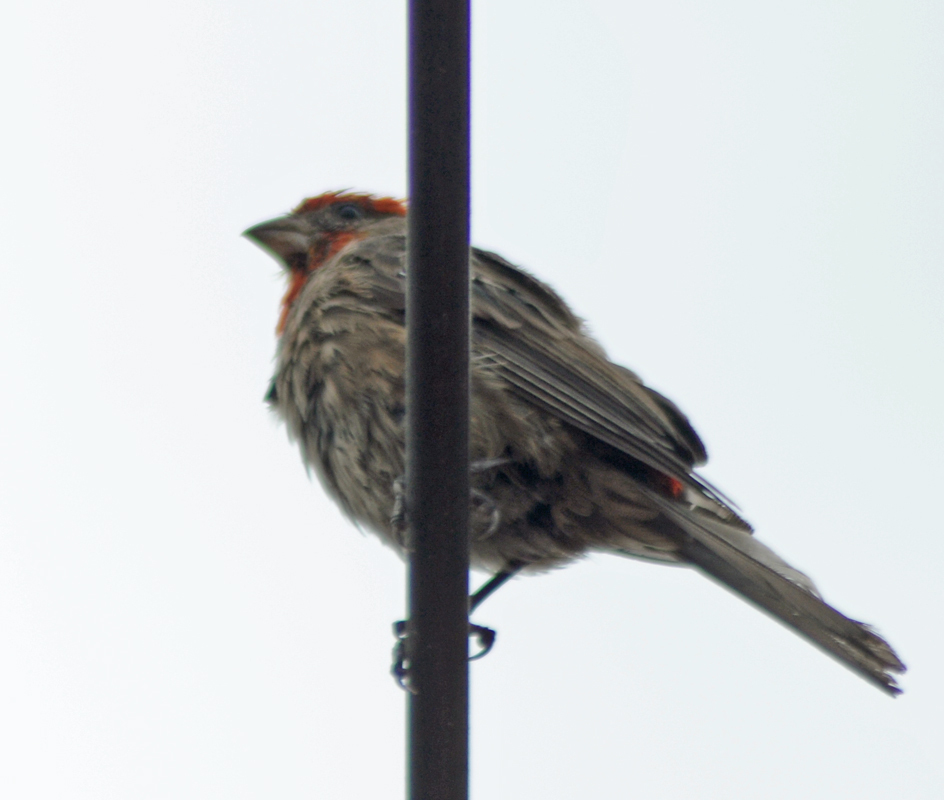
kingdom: Animalia
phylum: Chordata
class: Aves
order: Passeriformes
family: Fringillidae
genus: Haemorhous
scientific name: Haemorhous mexicanus
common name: House finch
